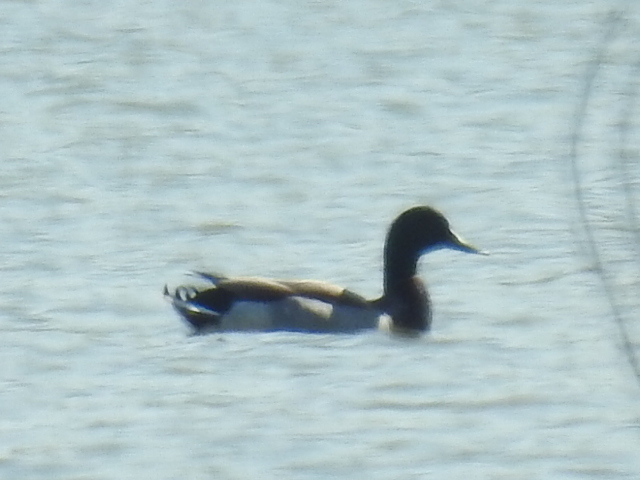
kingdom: Animalia
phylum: Chordata
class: Aves
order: Anseriformes
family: Anatidae
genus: Anas
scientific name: Anas platyrhynchos
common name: Mallard
